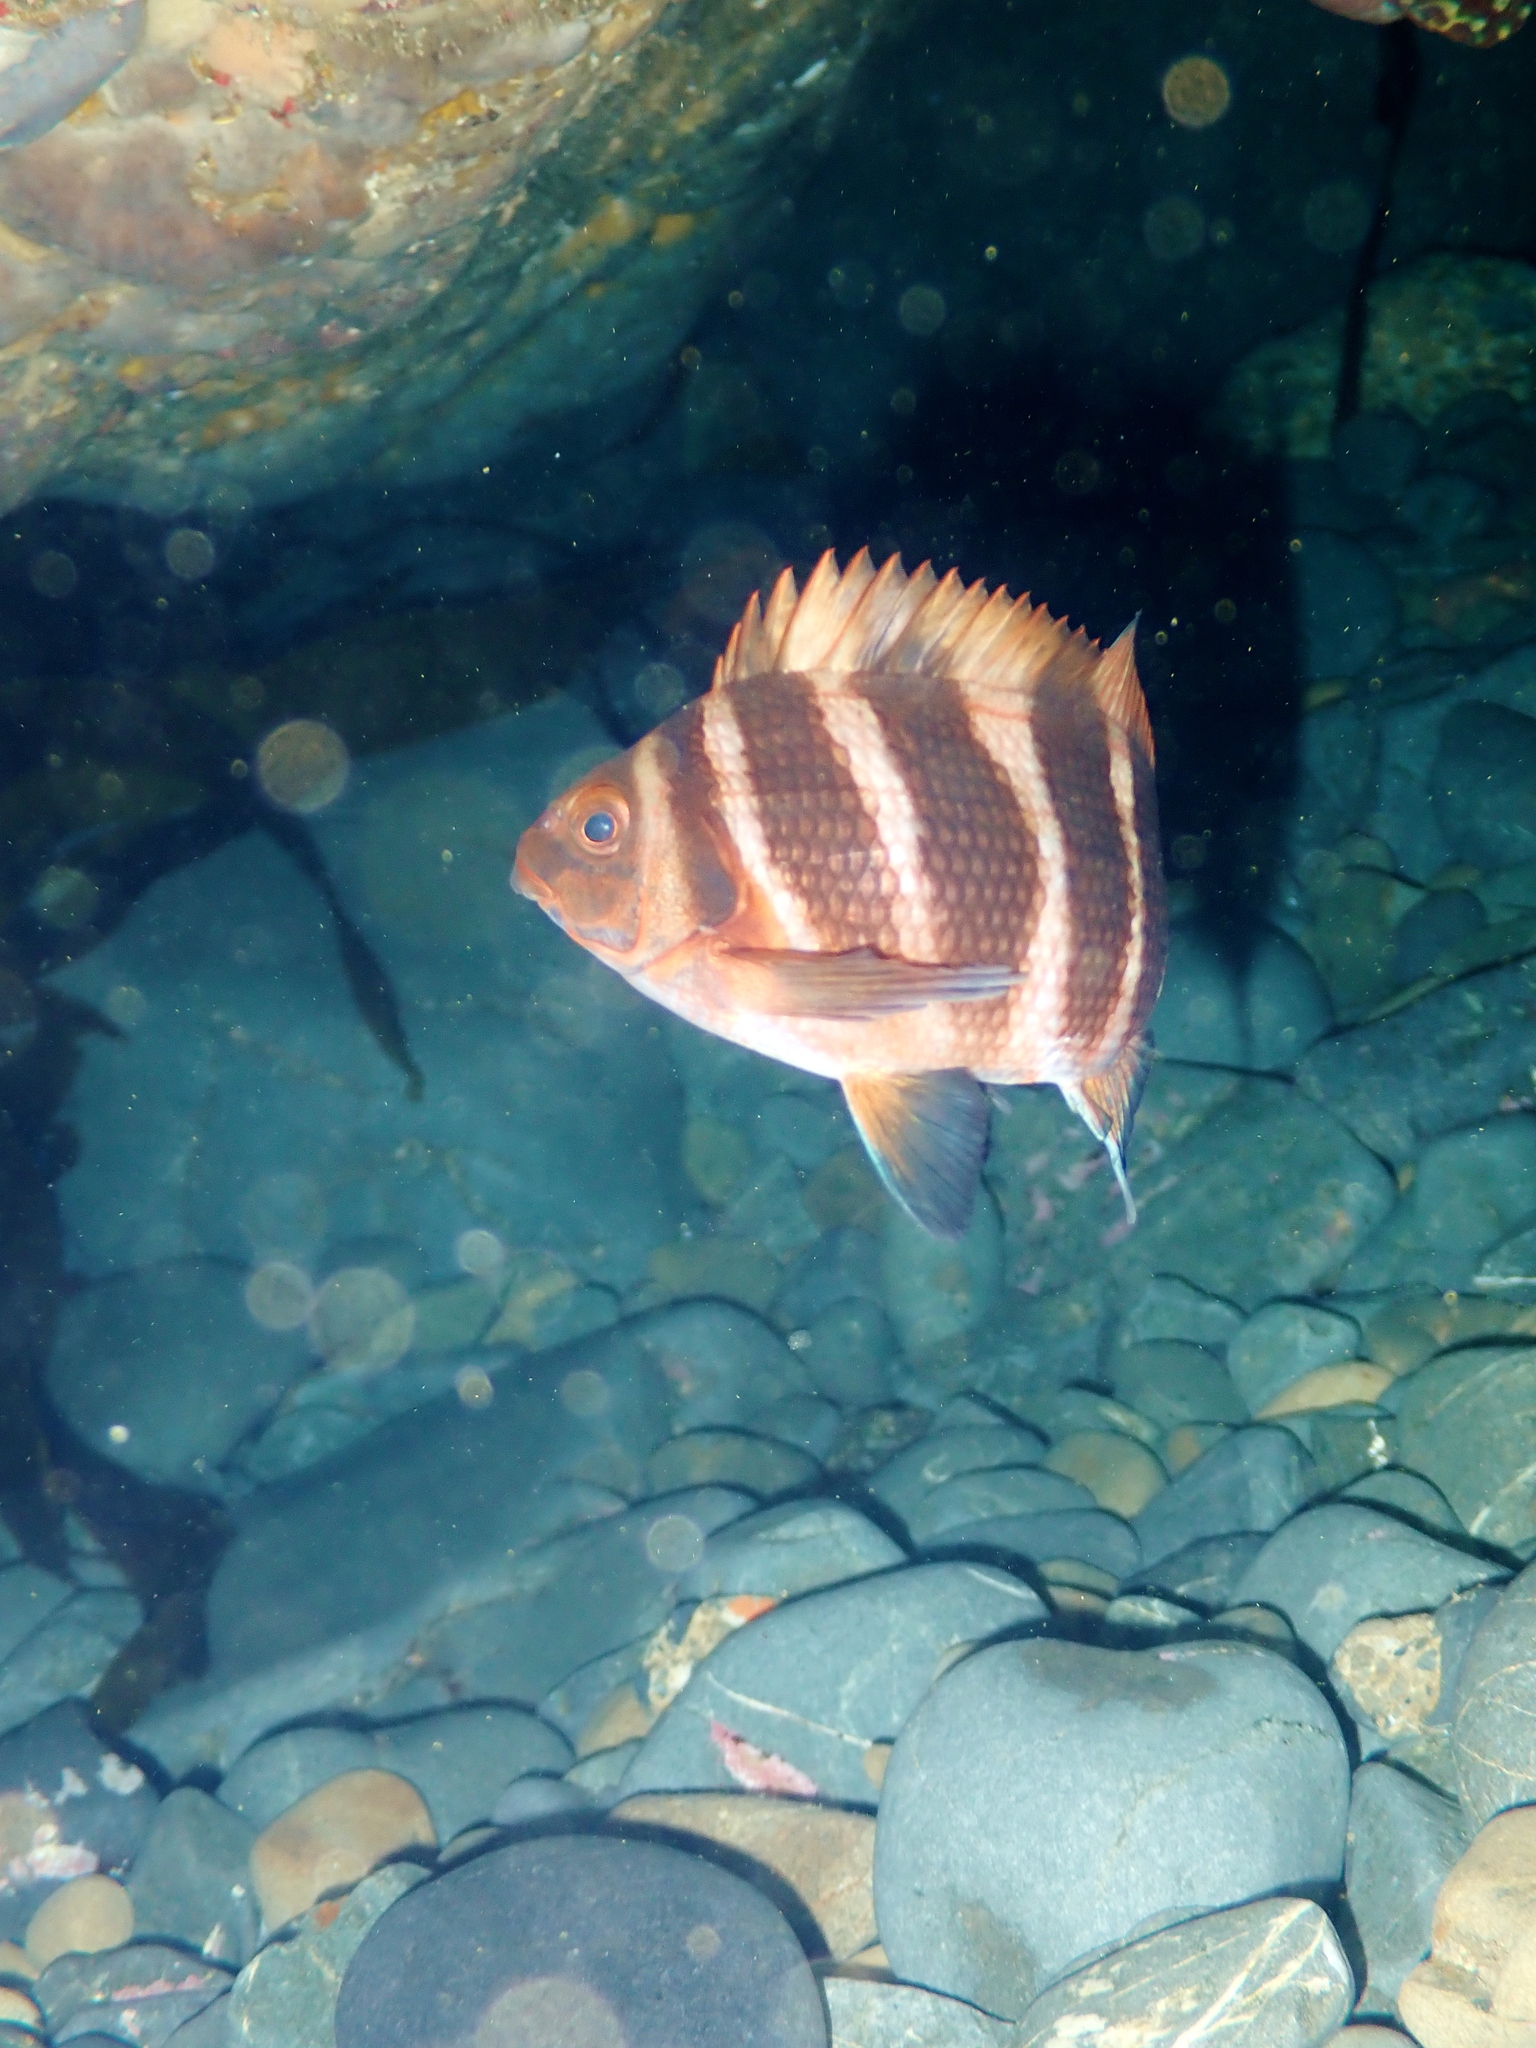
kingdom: Animalia
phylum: Chordata
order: Perciformes
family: Cheilodactylidae
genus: Cheilodactylus
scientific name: Cheilodactylus spectabilis
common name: Red moki
